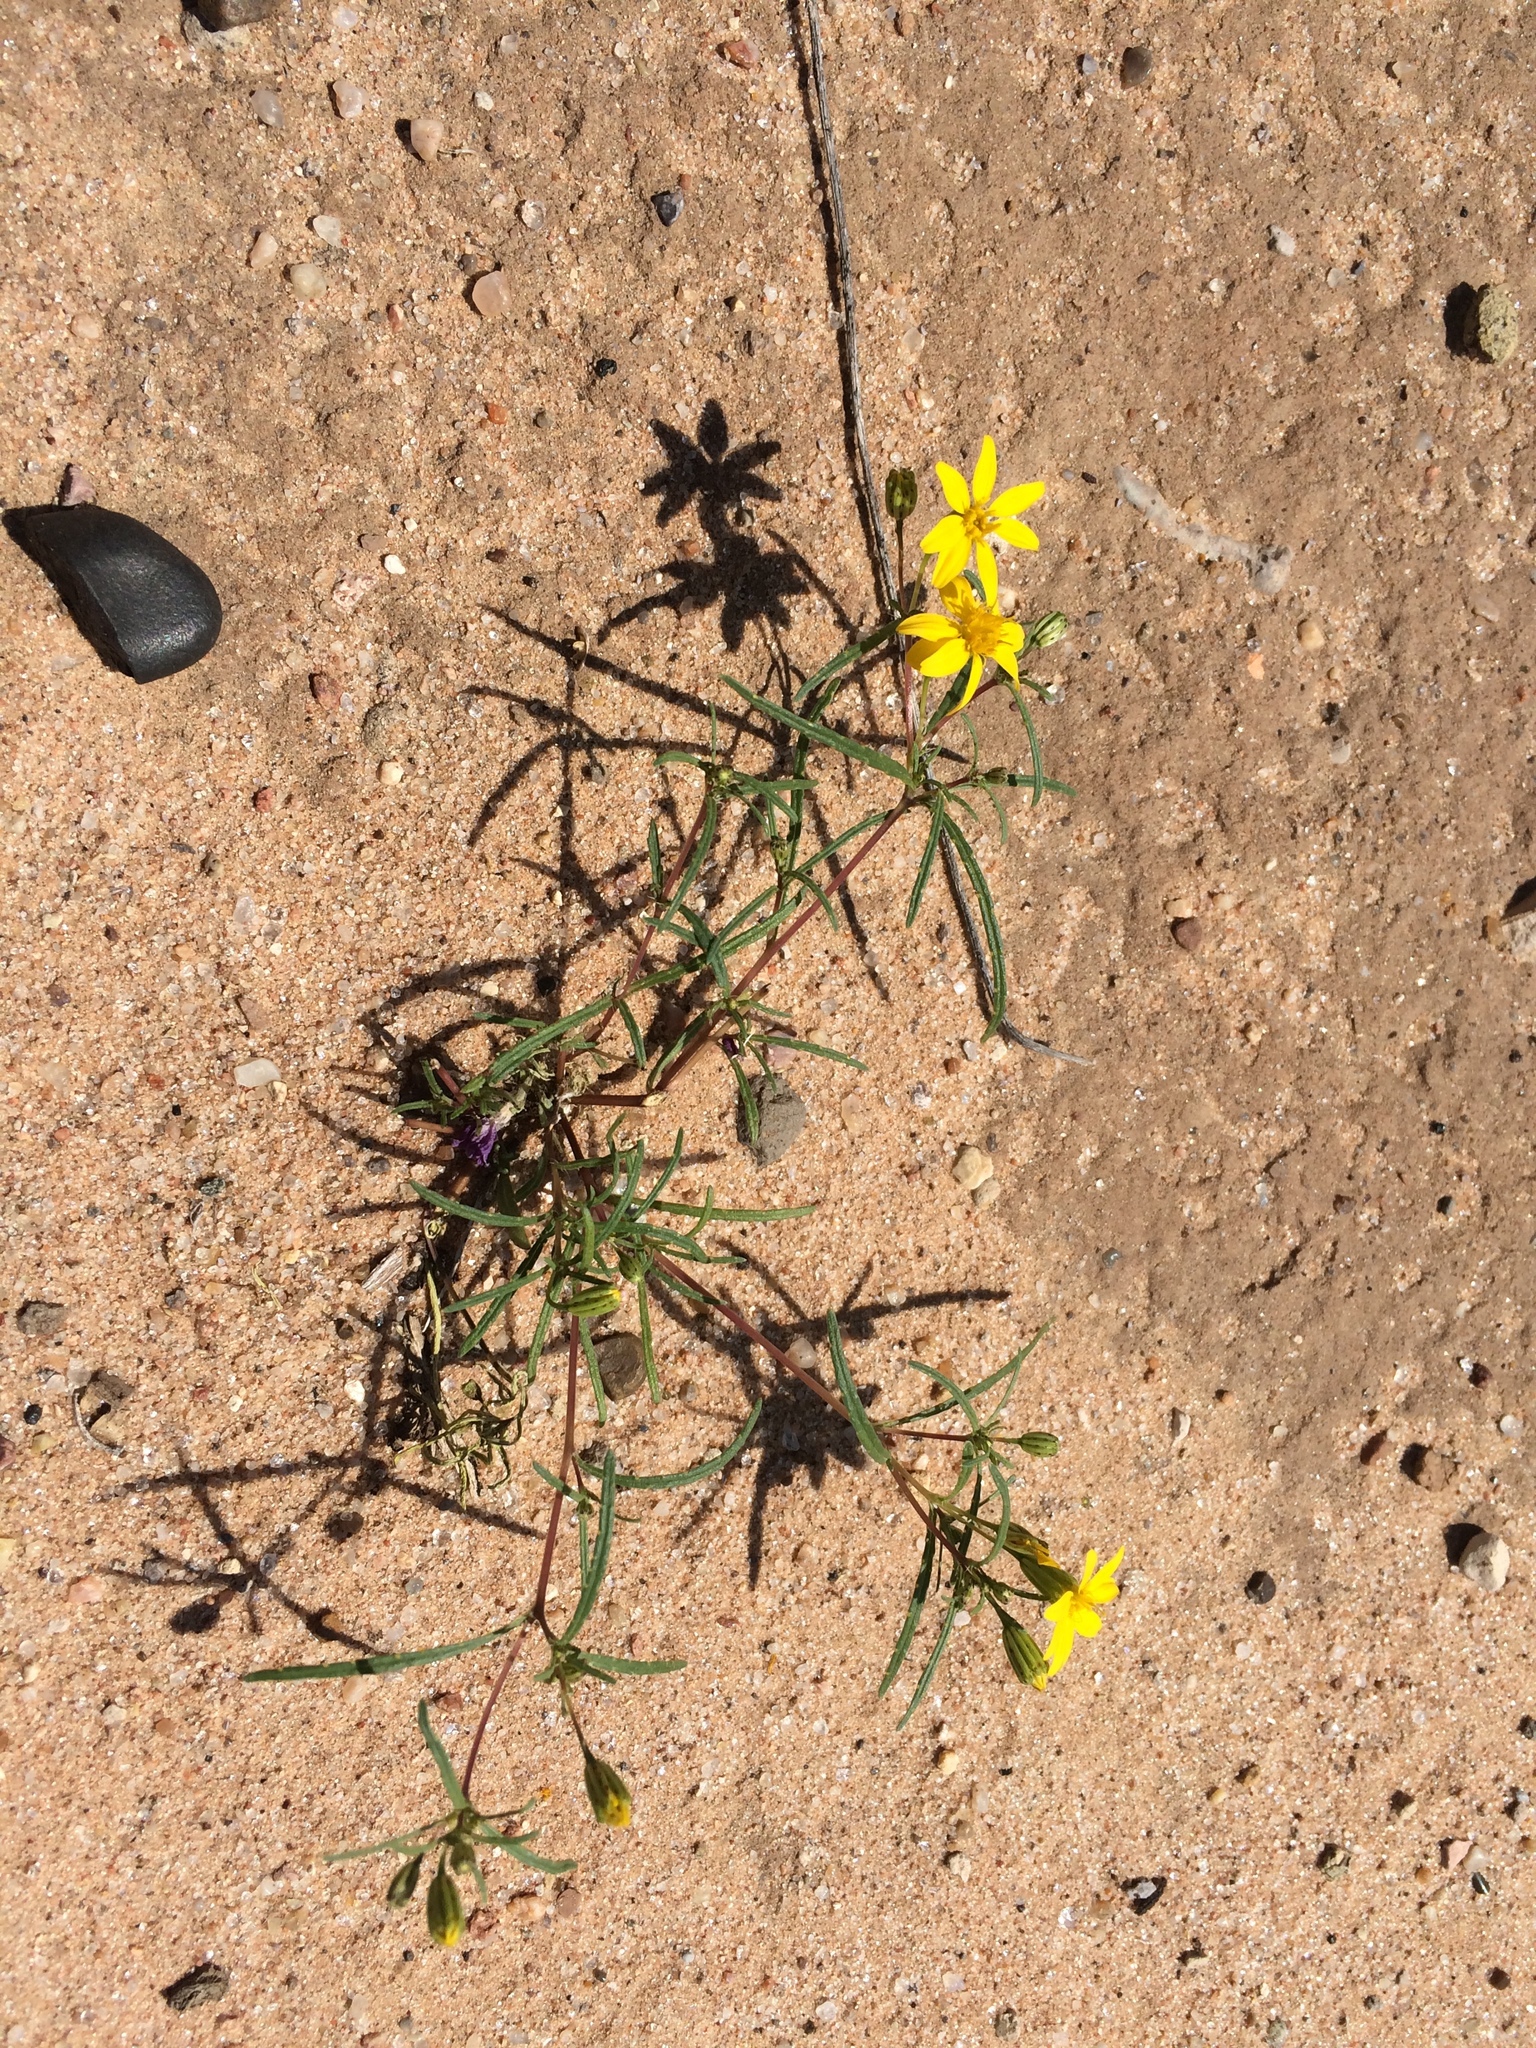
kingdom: Plantae
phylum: Tracheophyta
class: Magnoliopsida
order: Asterales
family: Asteraceae
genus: Pectis
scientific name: Pectis papposa
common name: Many-bristle chinchweed
